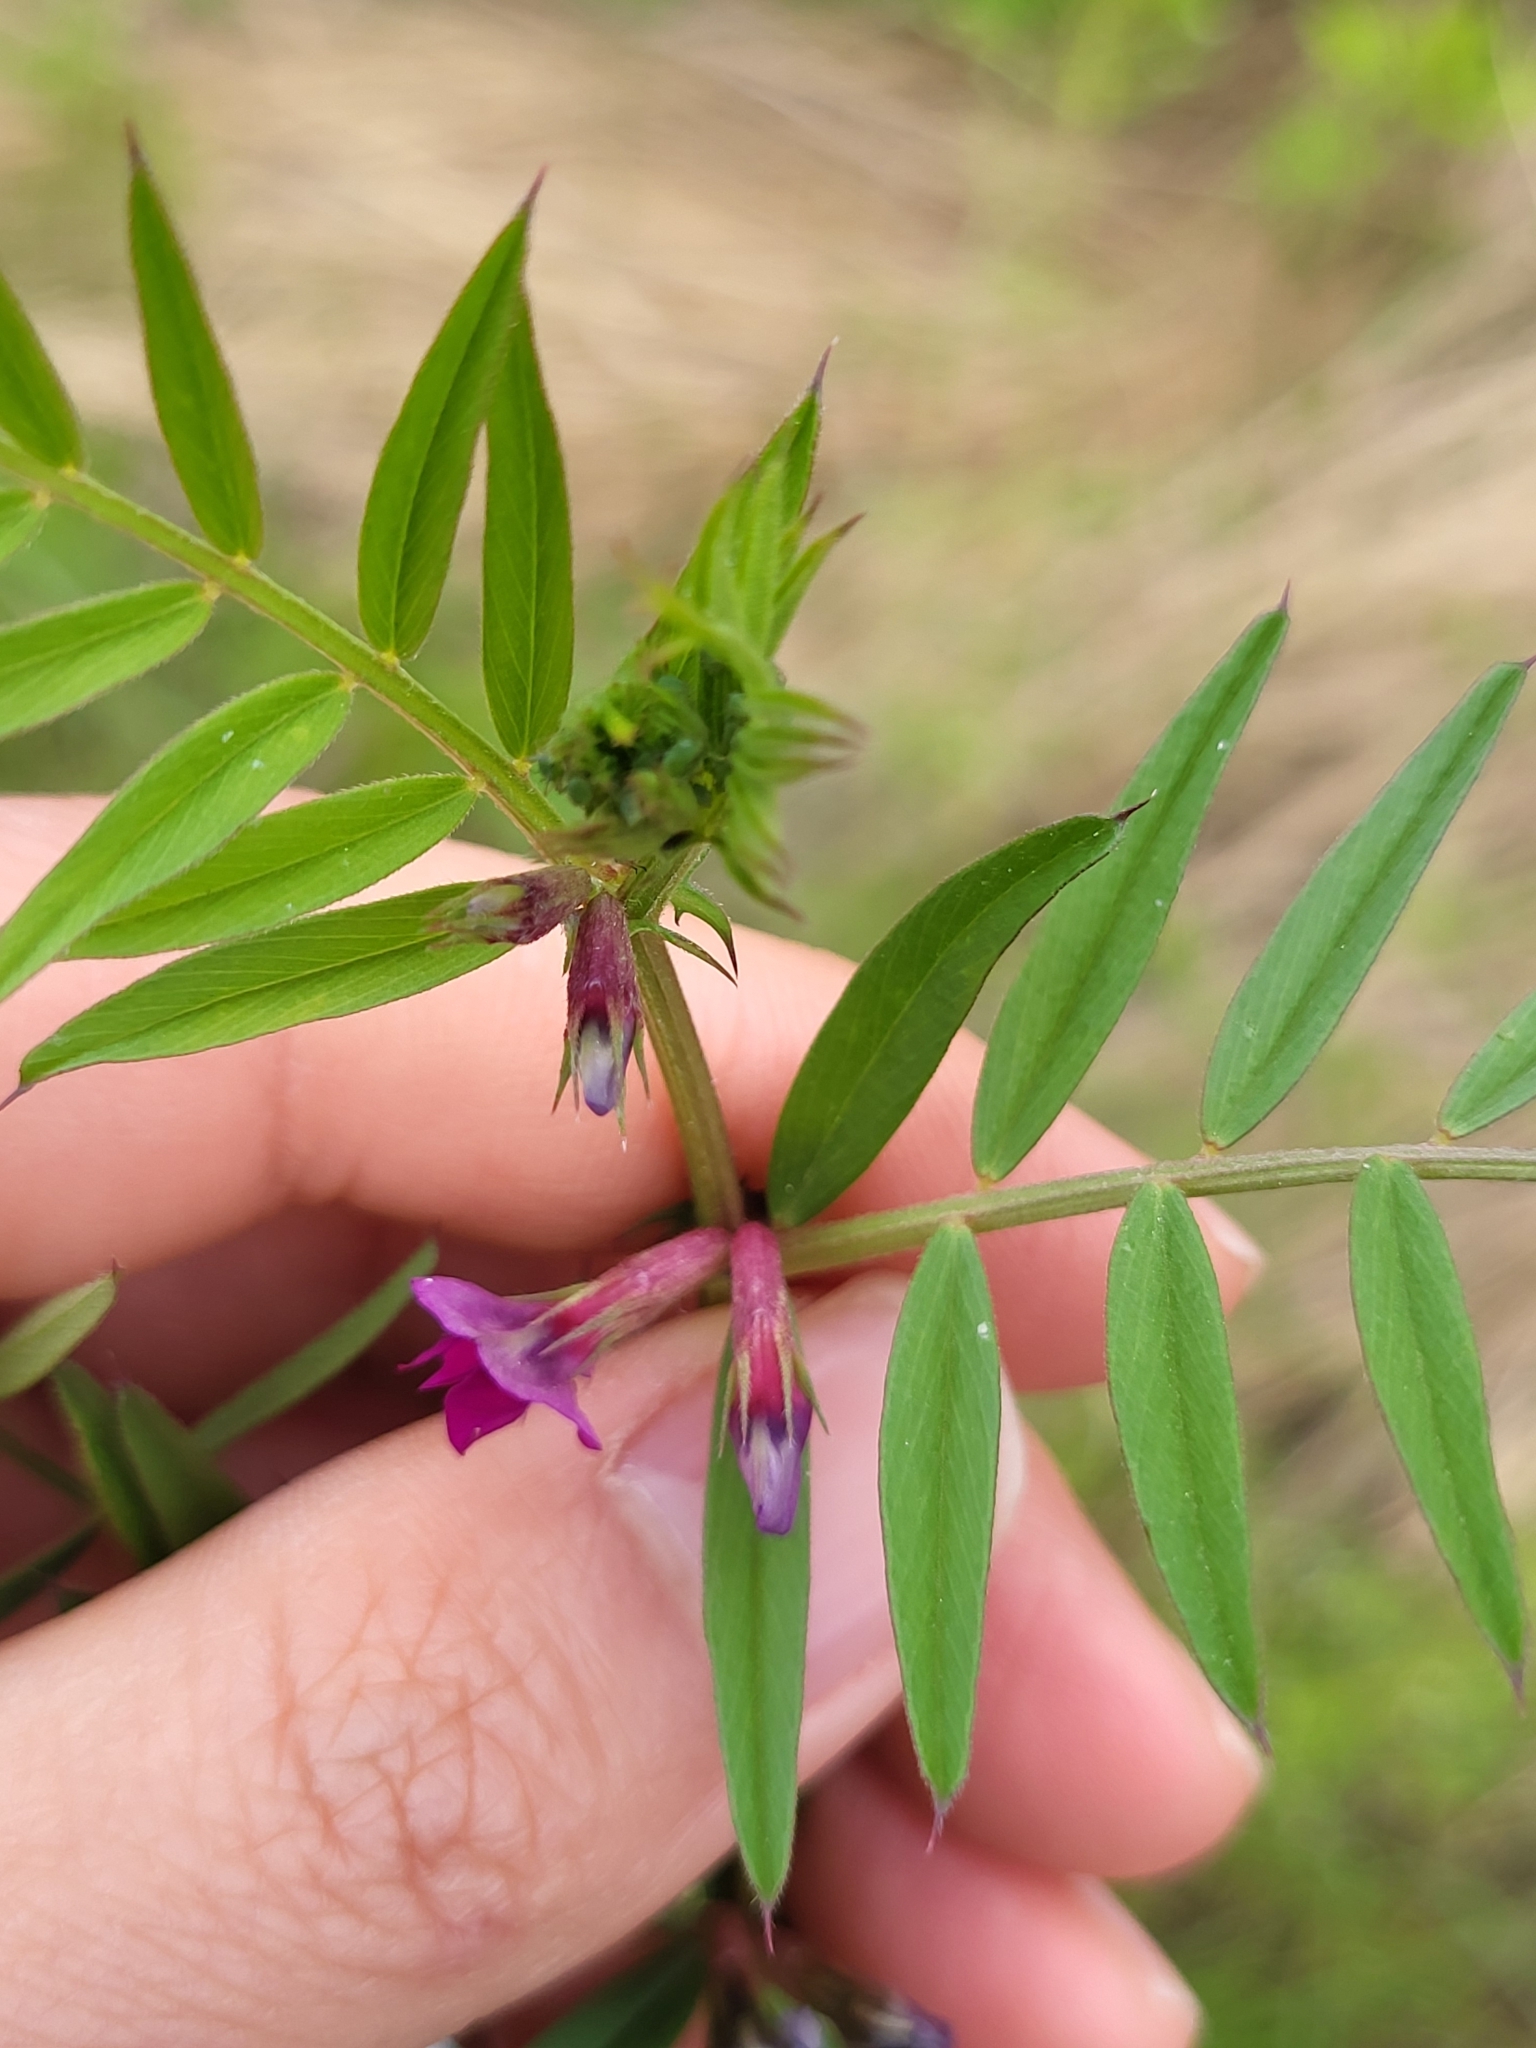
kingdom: Plantae
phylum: Tracheophyta
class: Magnoliopsida
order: Fabales
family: Fabaceae
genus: Vicia
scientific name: Vicia sativa
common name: Garden vetch
